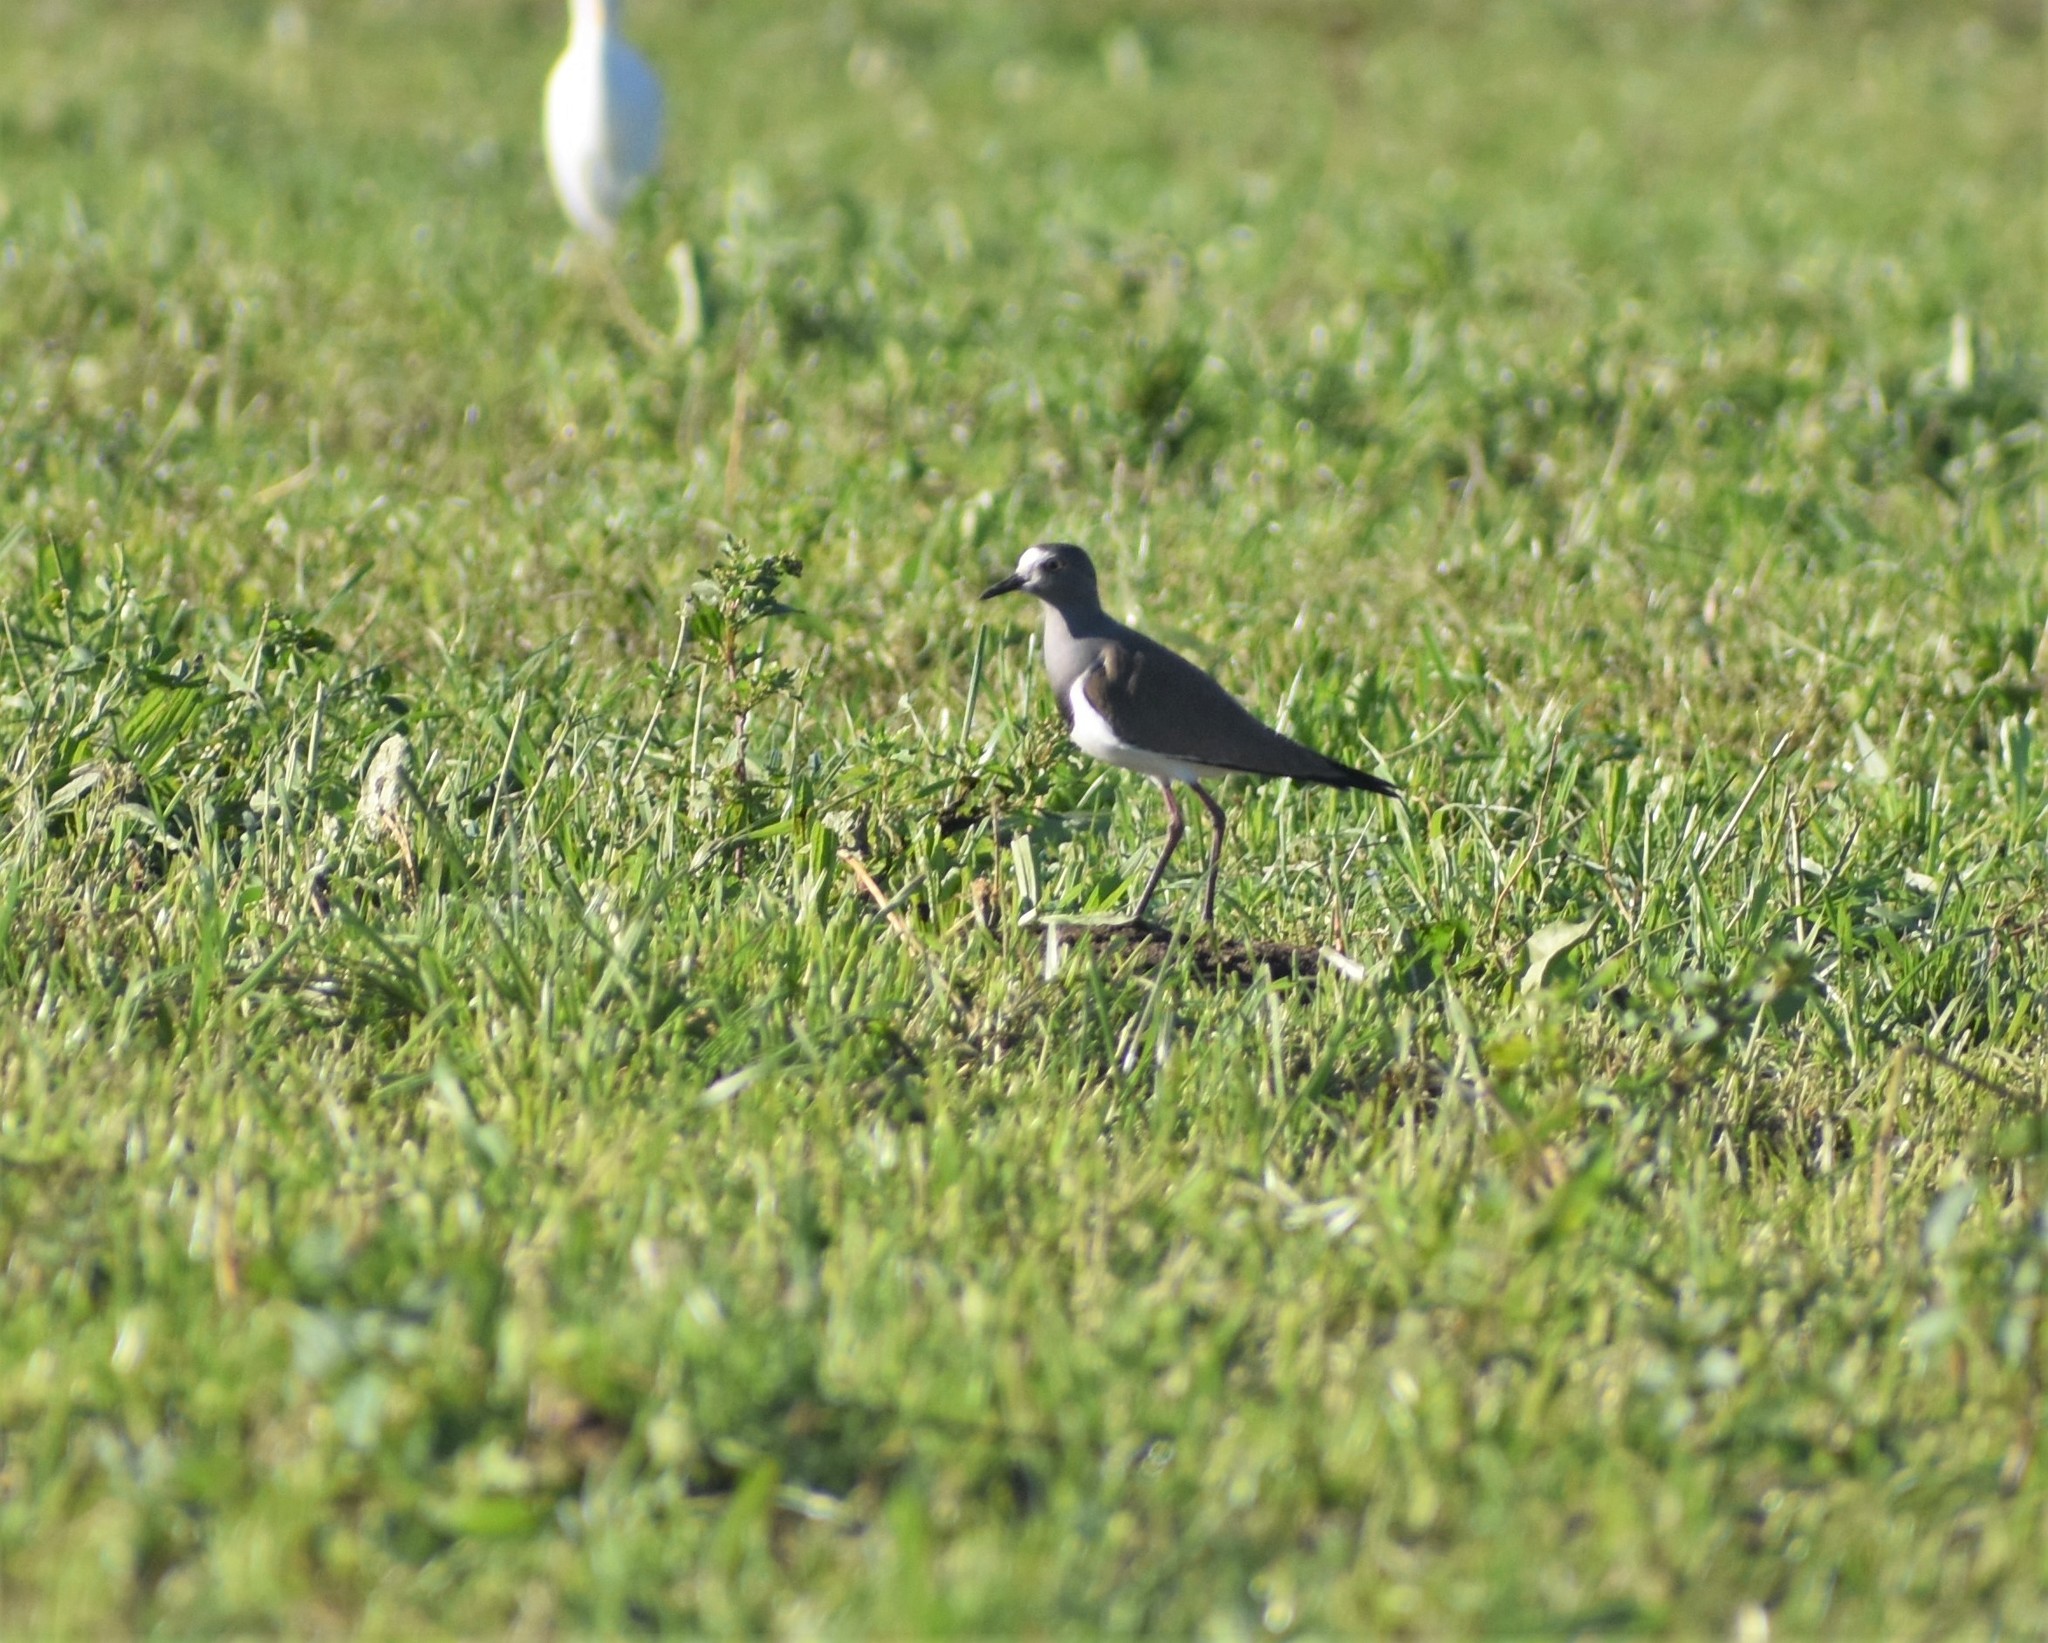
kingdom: Animalia
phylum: Chordata
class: Aves
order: Charadriiformes
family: Charadriidae
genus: Vanellus
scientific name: Vanellus melanopterus
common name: Black-winged lapwing
